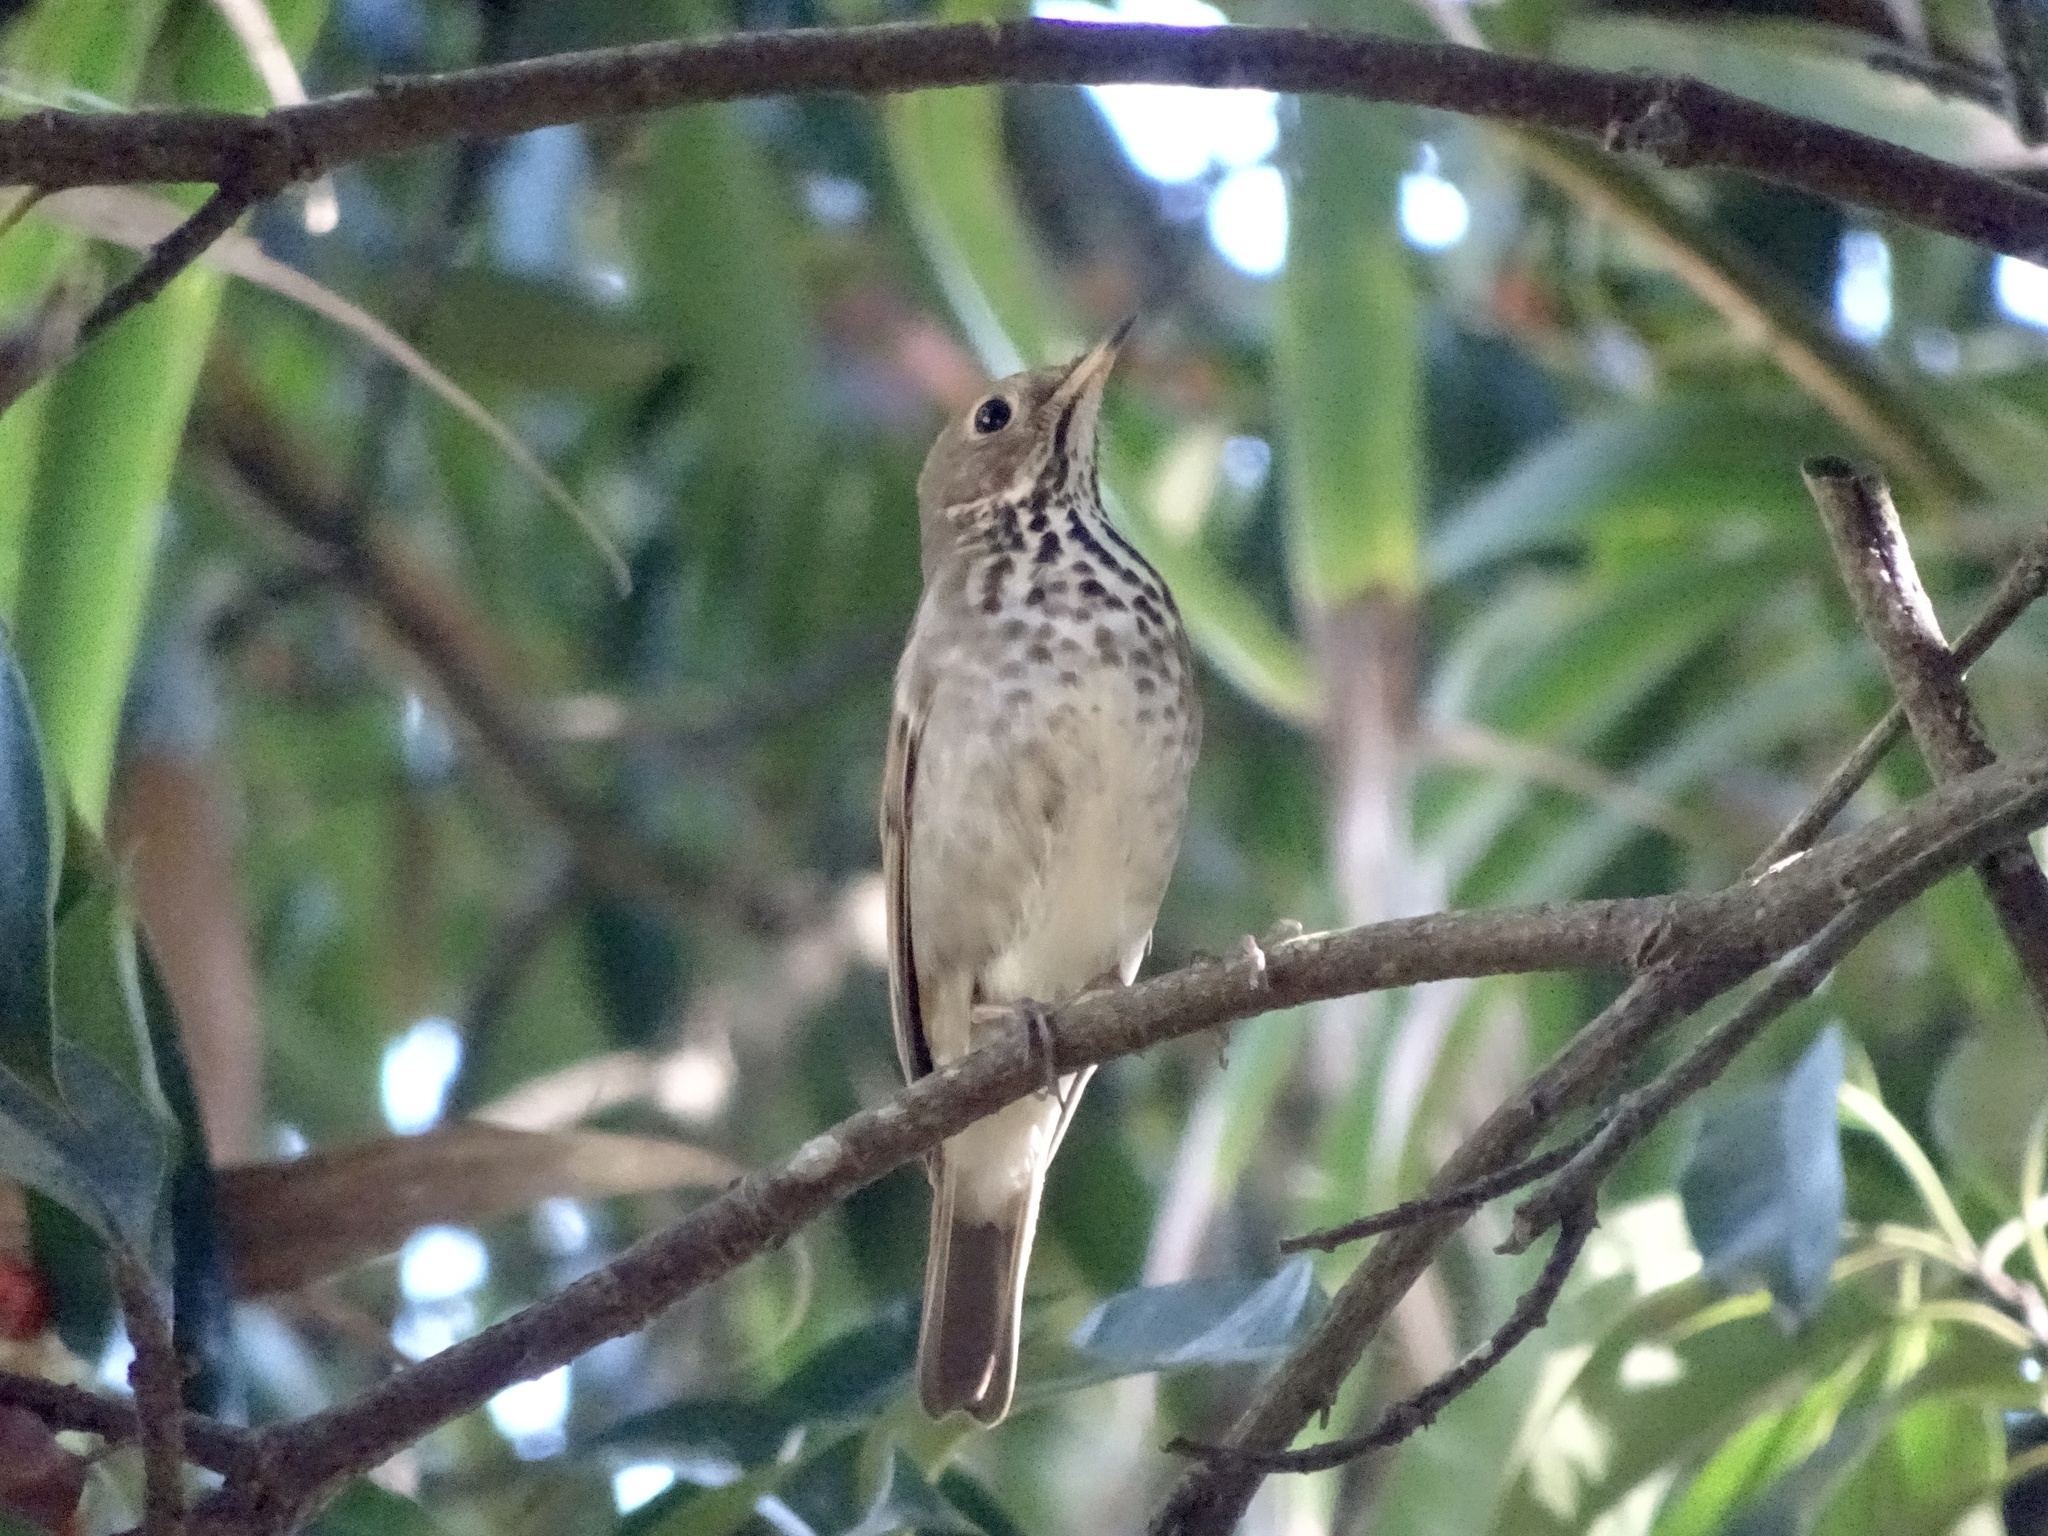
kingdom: Animalia
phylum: Chordata
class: Aves
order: Passeriformes
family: Turdidae
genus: Catharus
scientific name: Catharus guttatus
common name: Hermit thrush
